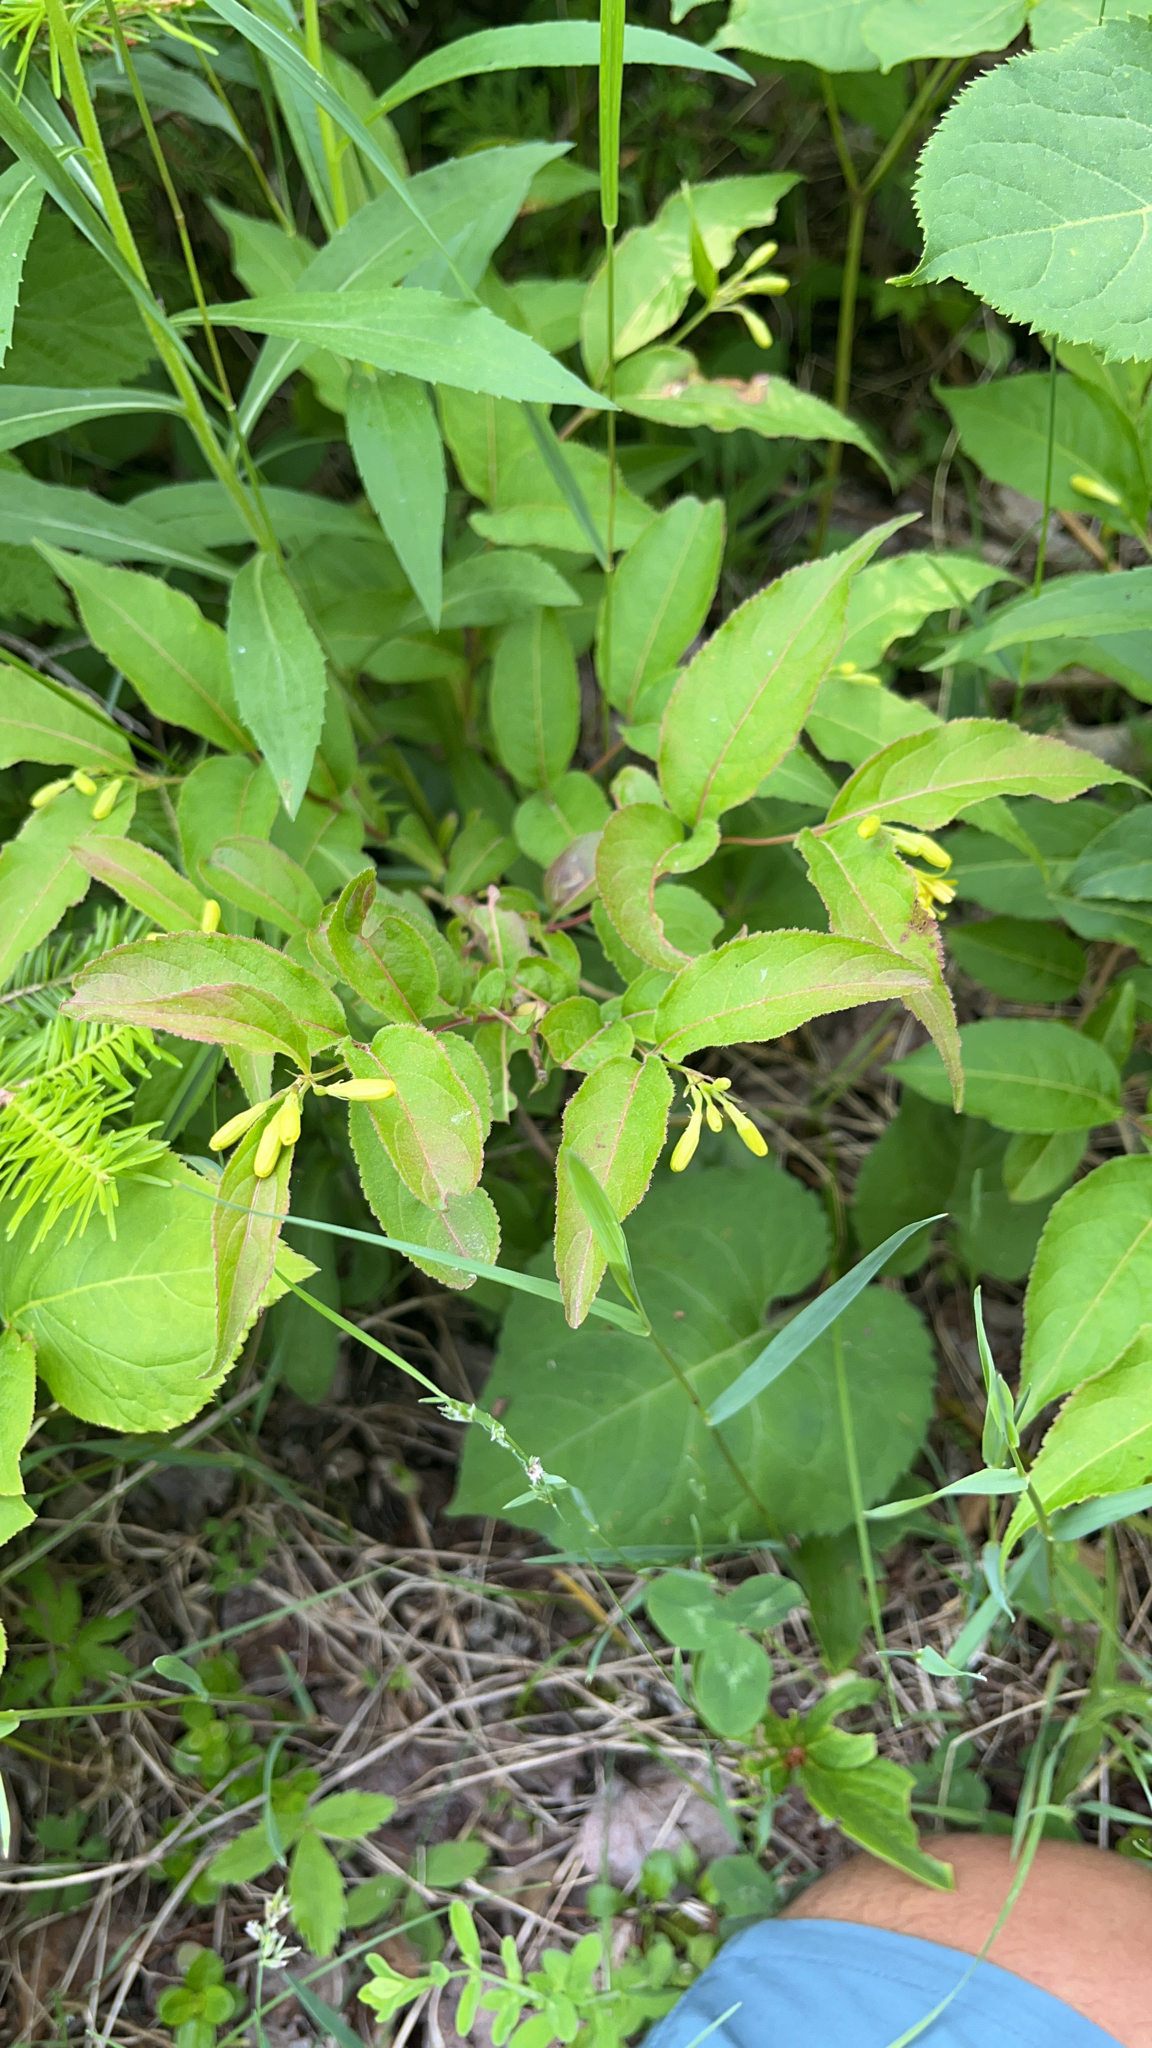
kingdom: Plantae
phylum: Tracheophyta
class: Magnoliopsida
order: Dipsacales
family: Caprifoliaceae
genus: Diervilla
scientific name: Diervilla lonicera
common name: Bush-honeysuckle
